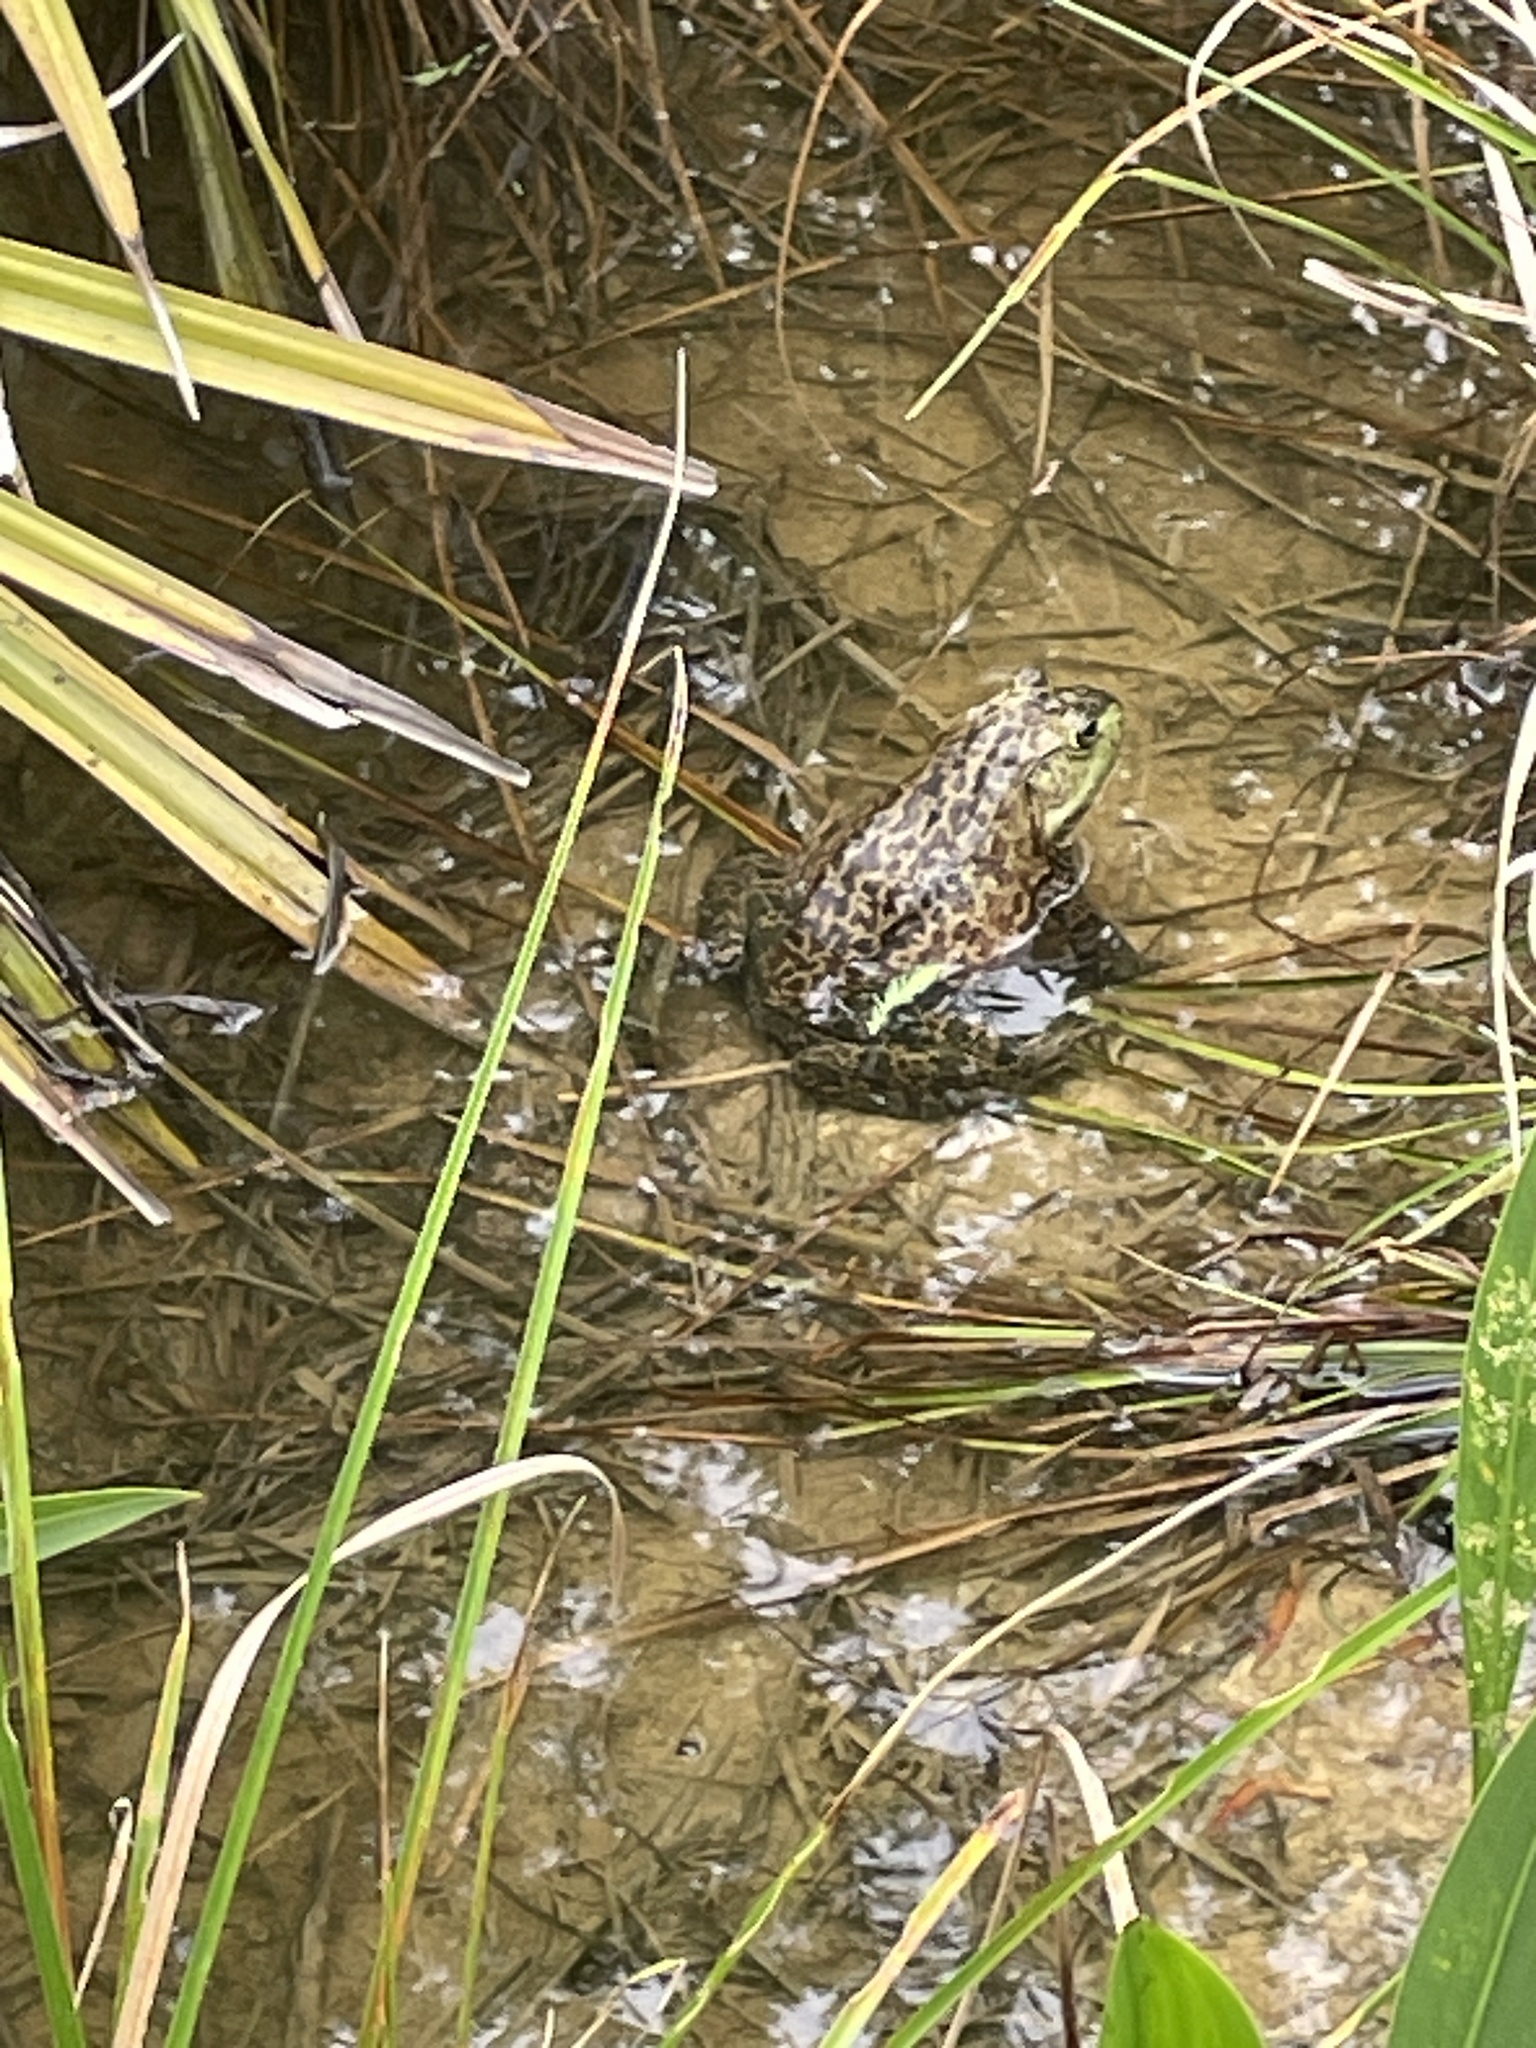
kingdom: Animalia
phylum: Chordata
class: Amphibia
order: Anura
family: Ranidae
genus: Lithobates
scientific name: Lithobates catesbeianus
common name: American bullfrog
